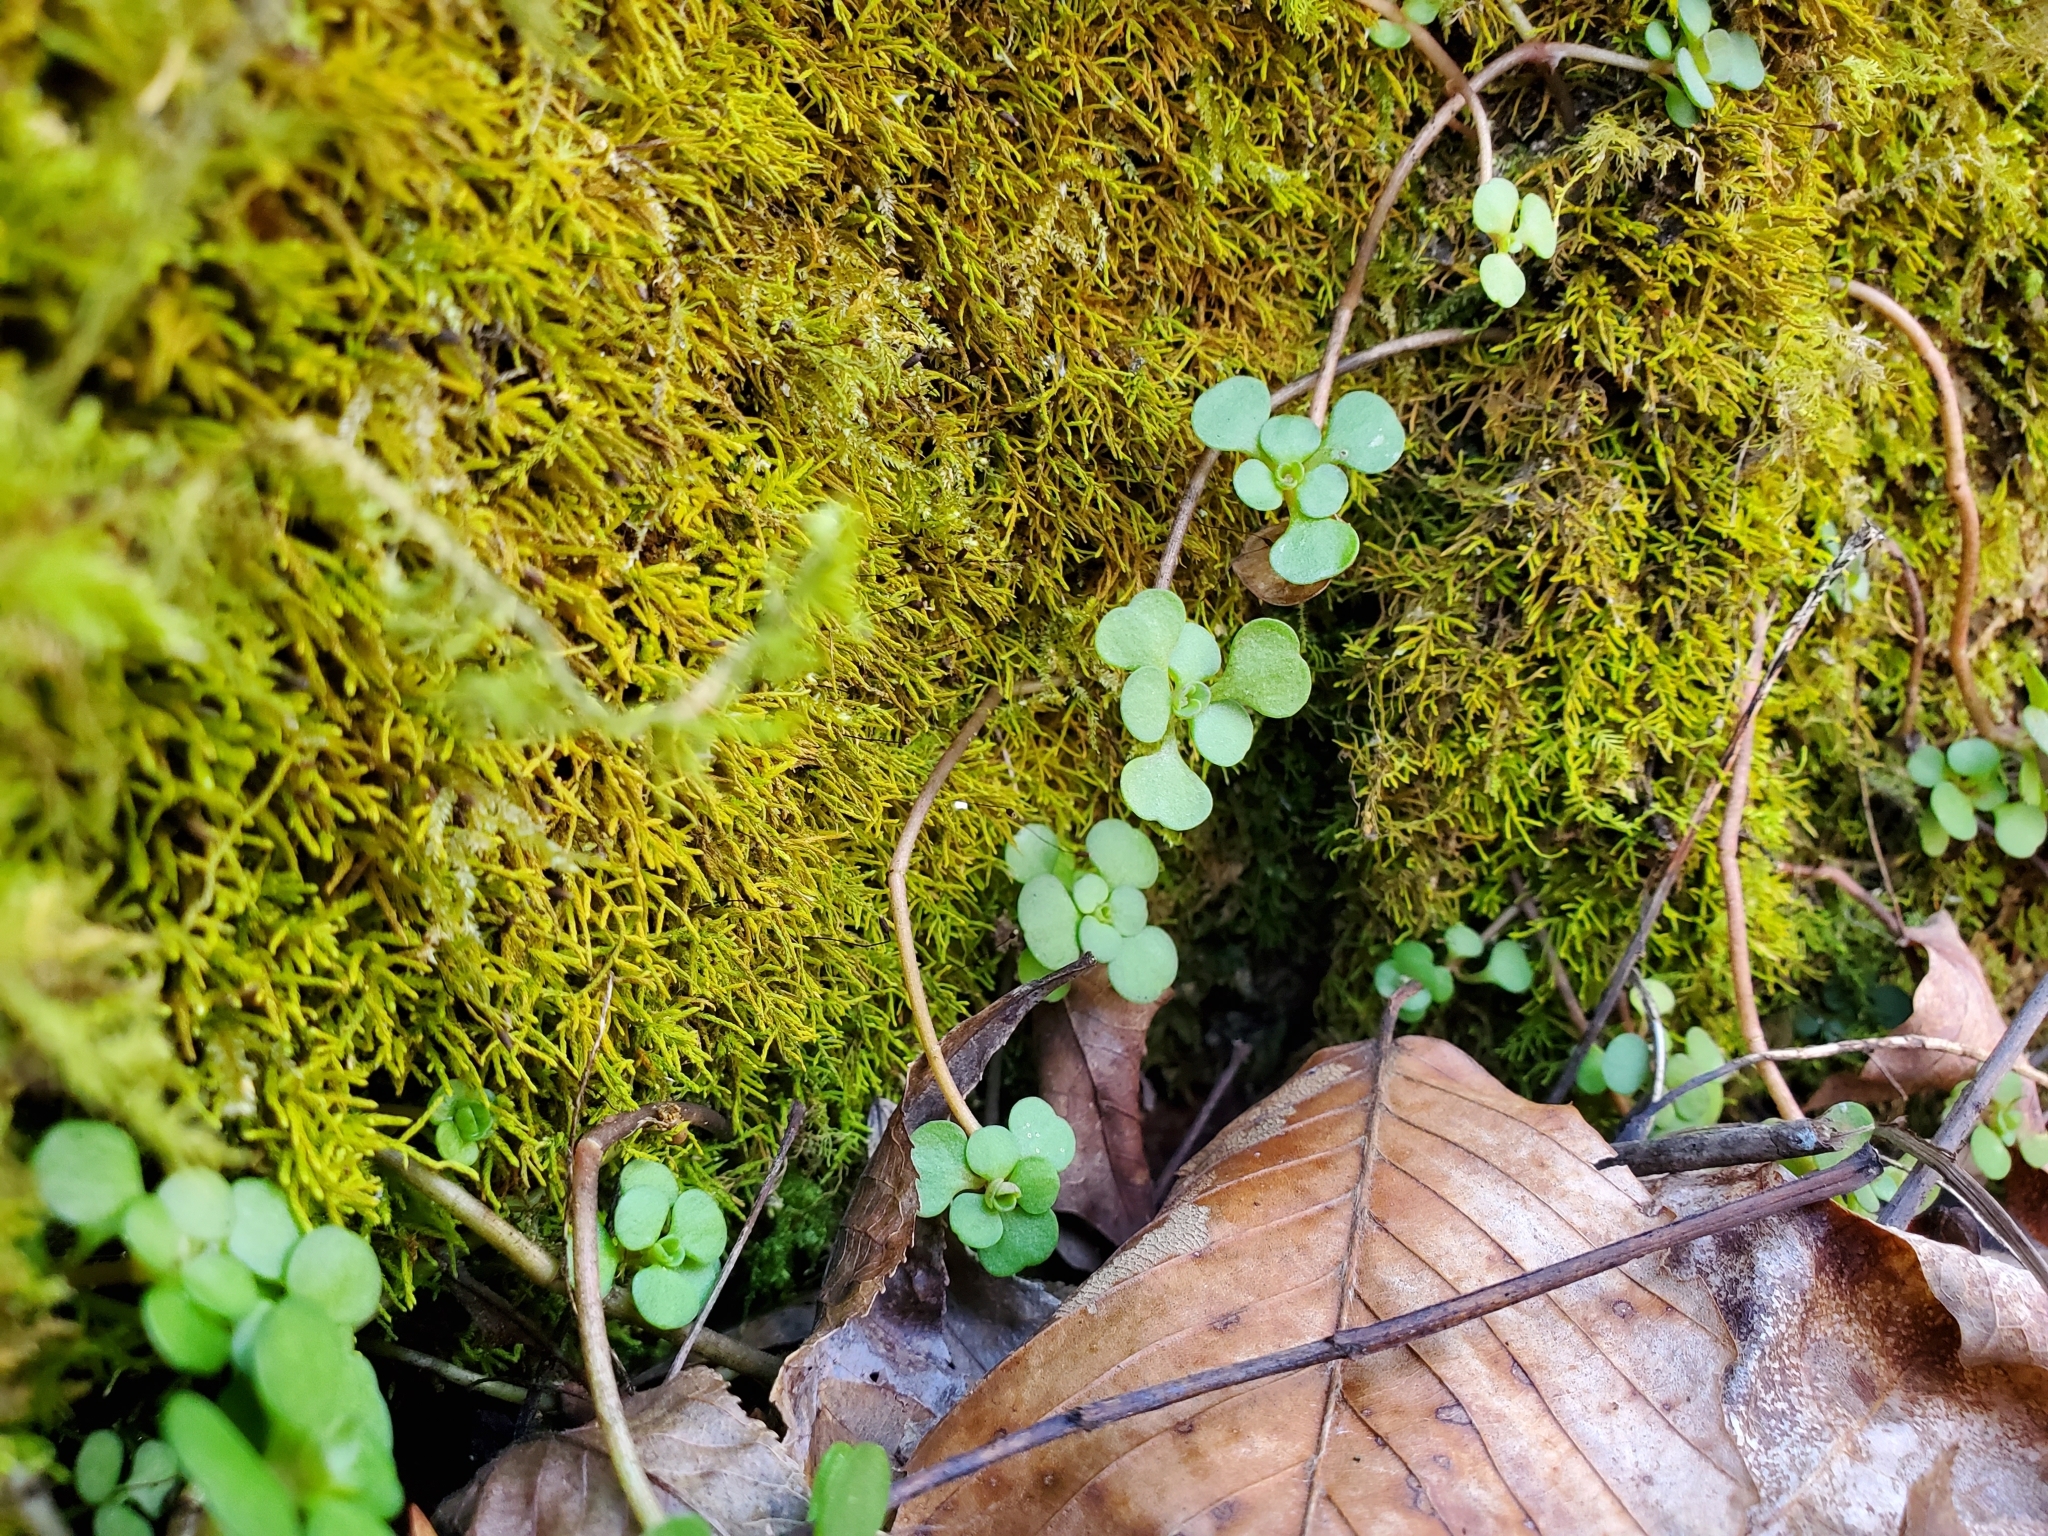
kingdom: Plantae
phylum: Tracheophyta
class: Magnoliopsida
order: Saxifragales
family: Crassulaceae
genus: Sedum
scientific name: Sedum ternatum
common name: Wild stonecrop
